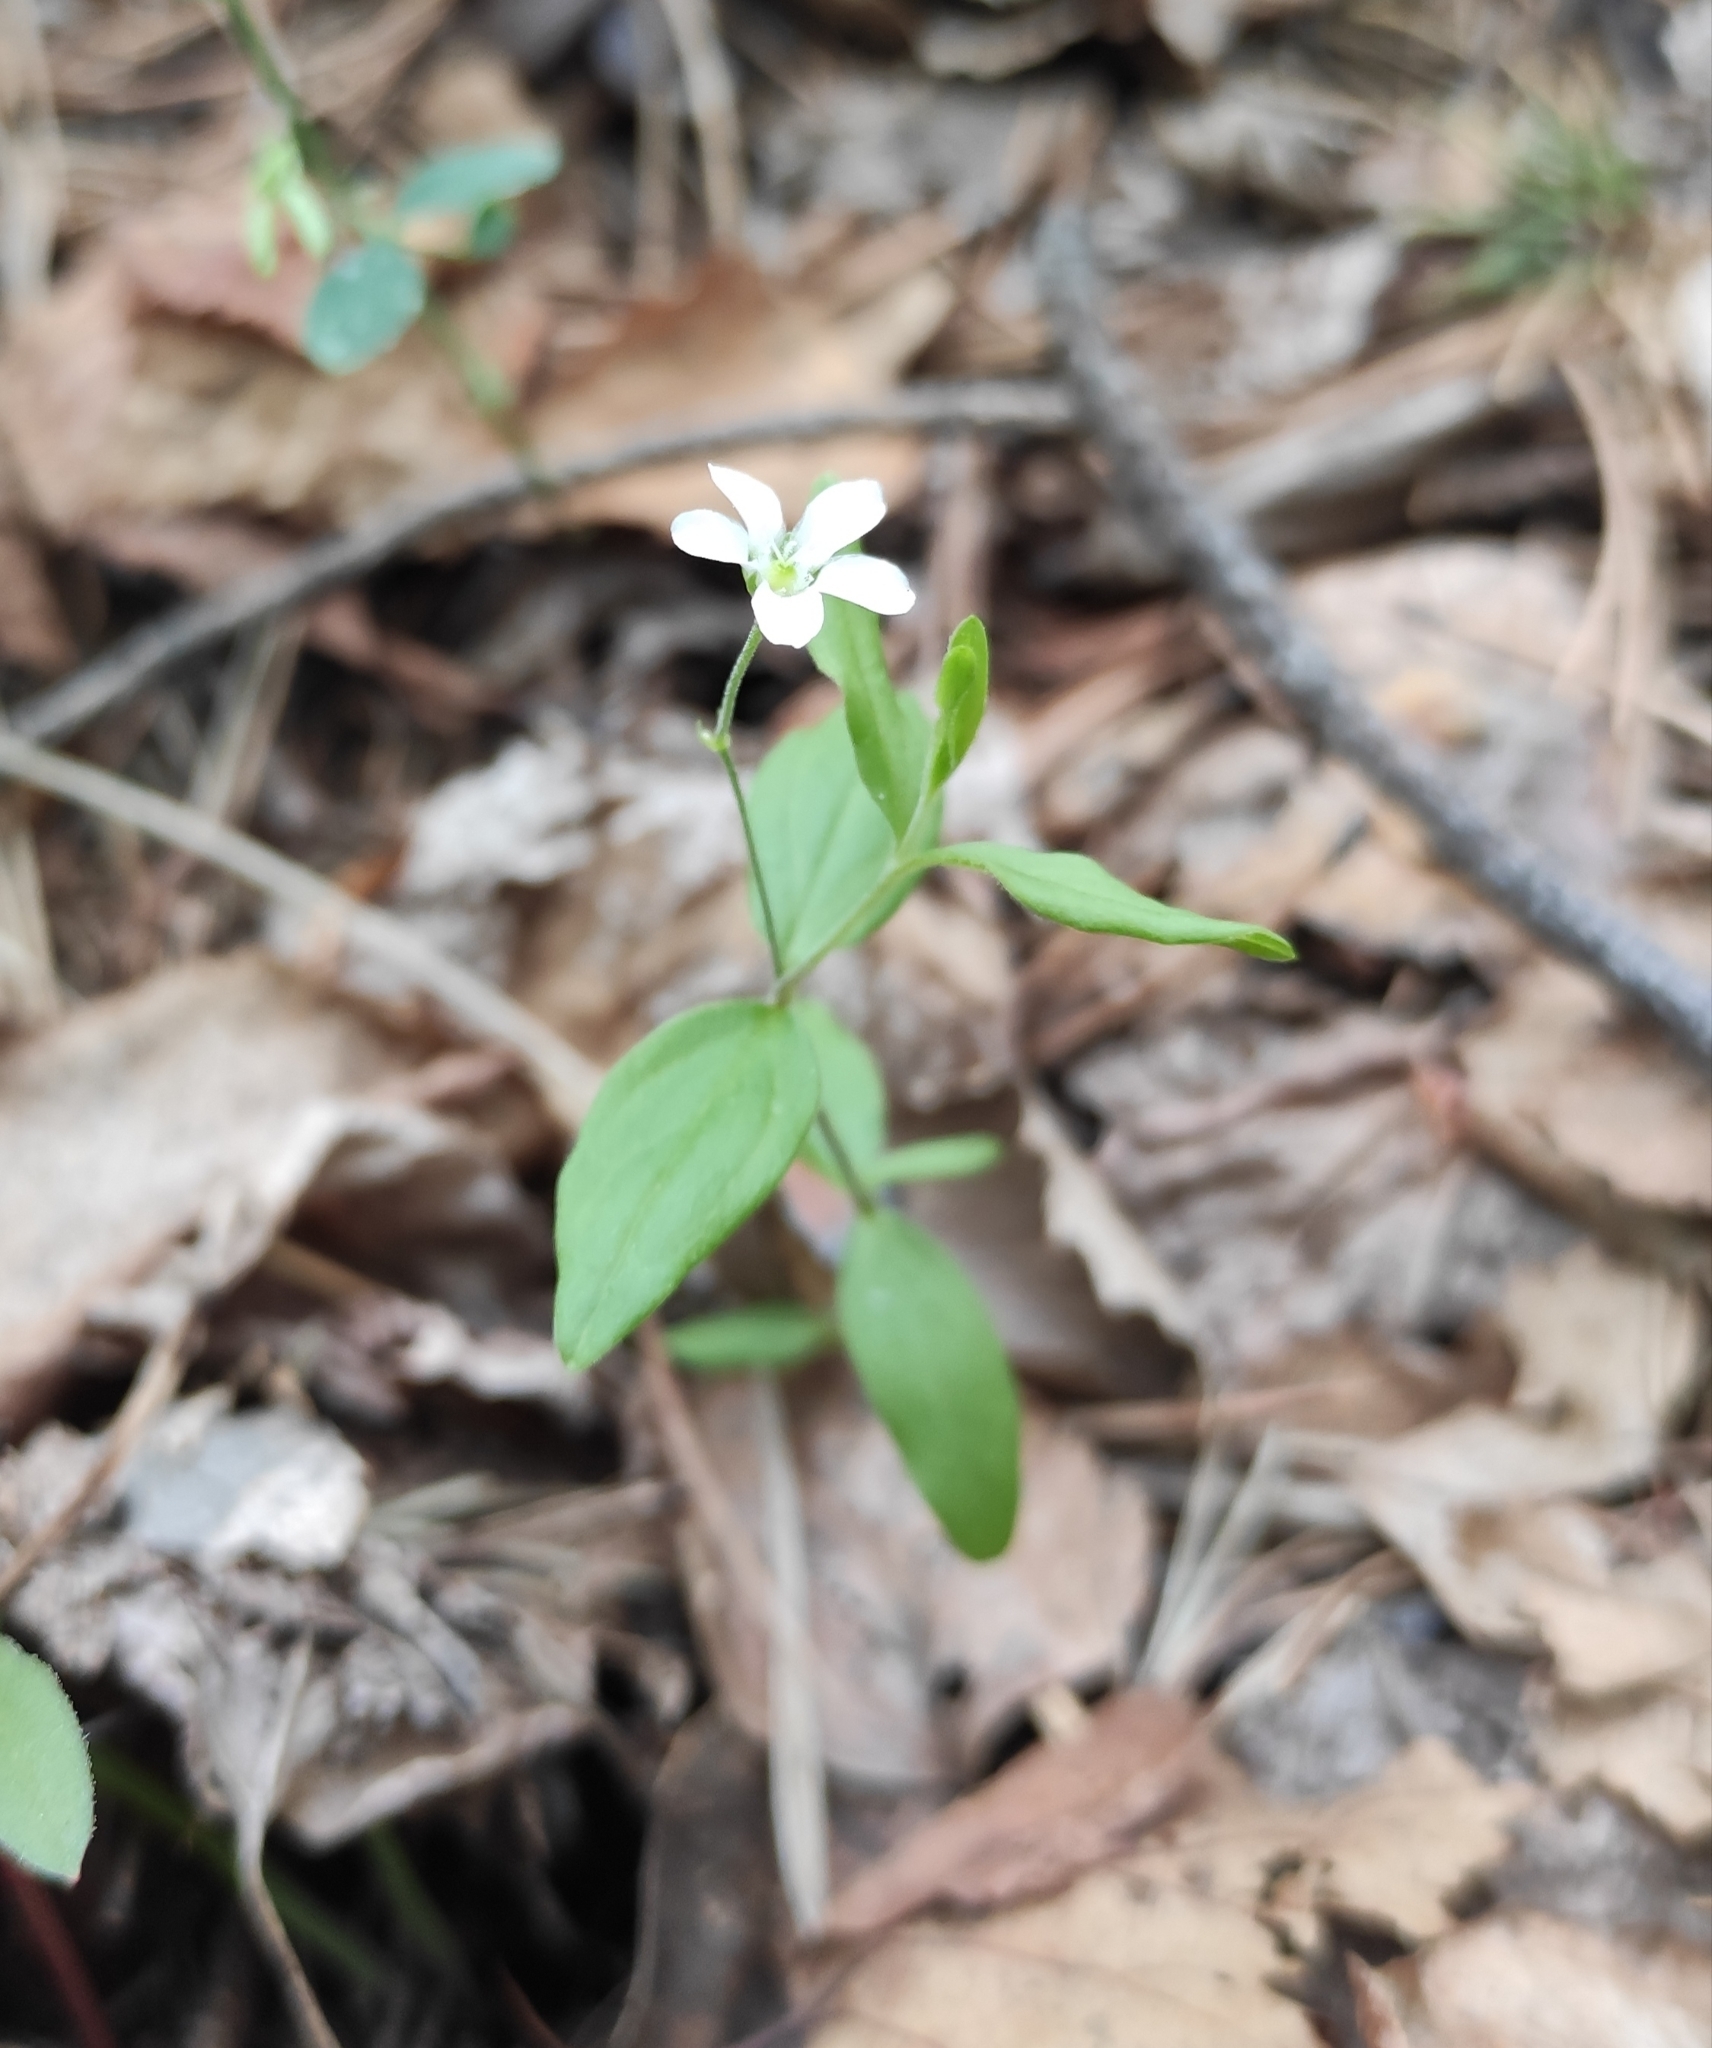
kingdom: Plantae
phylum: Tracheophyta
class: Magnoliopsida
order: Caryophyllales
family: Caryophyllaceae
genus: Moehringia
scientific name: Moehringia lateriflora
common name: Blunt-leaved sandwort
